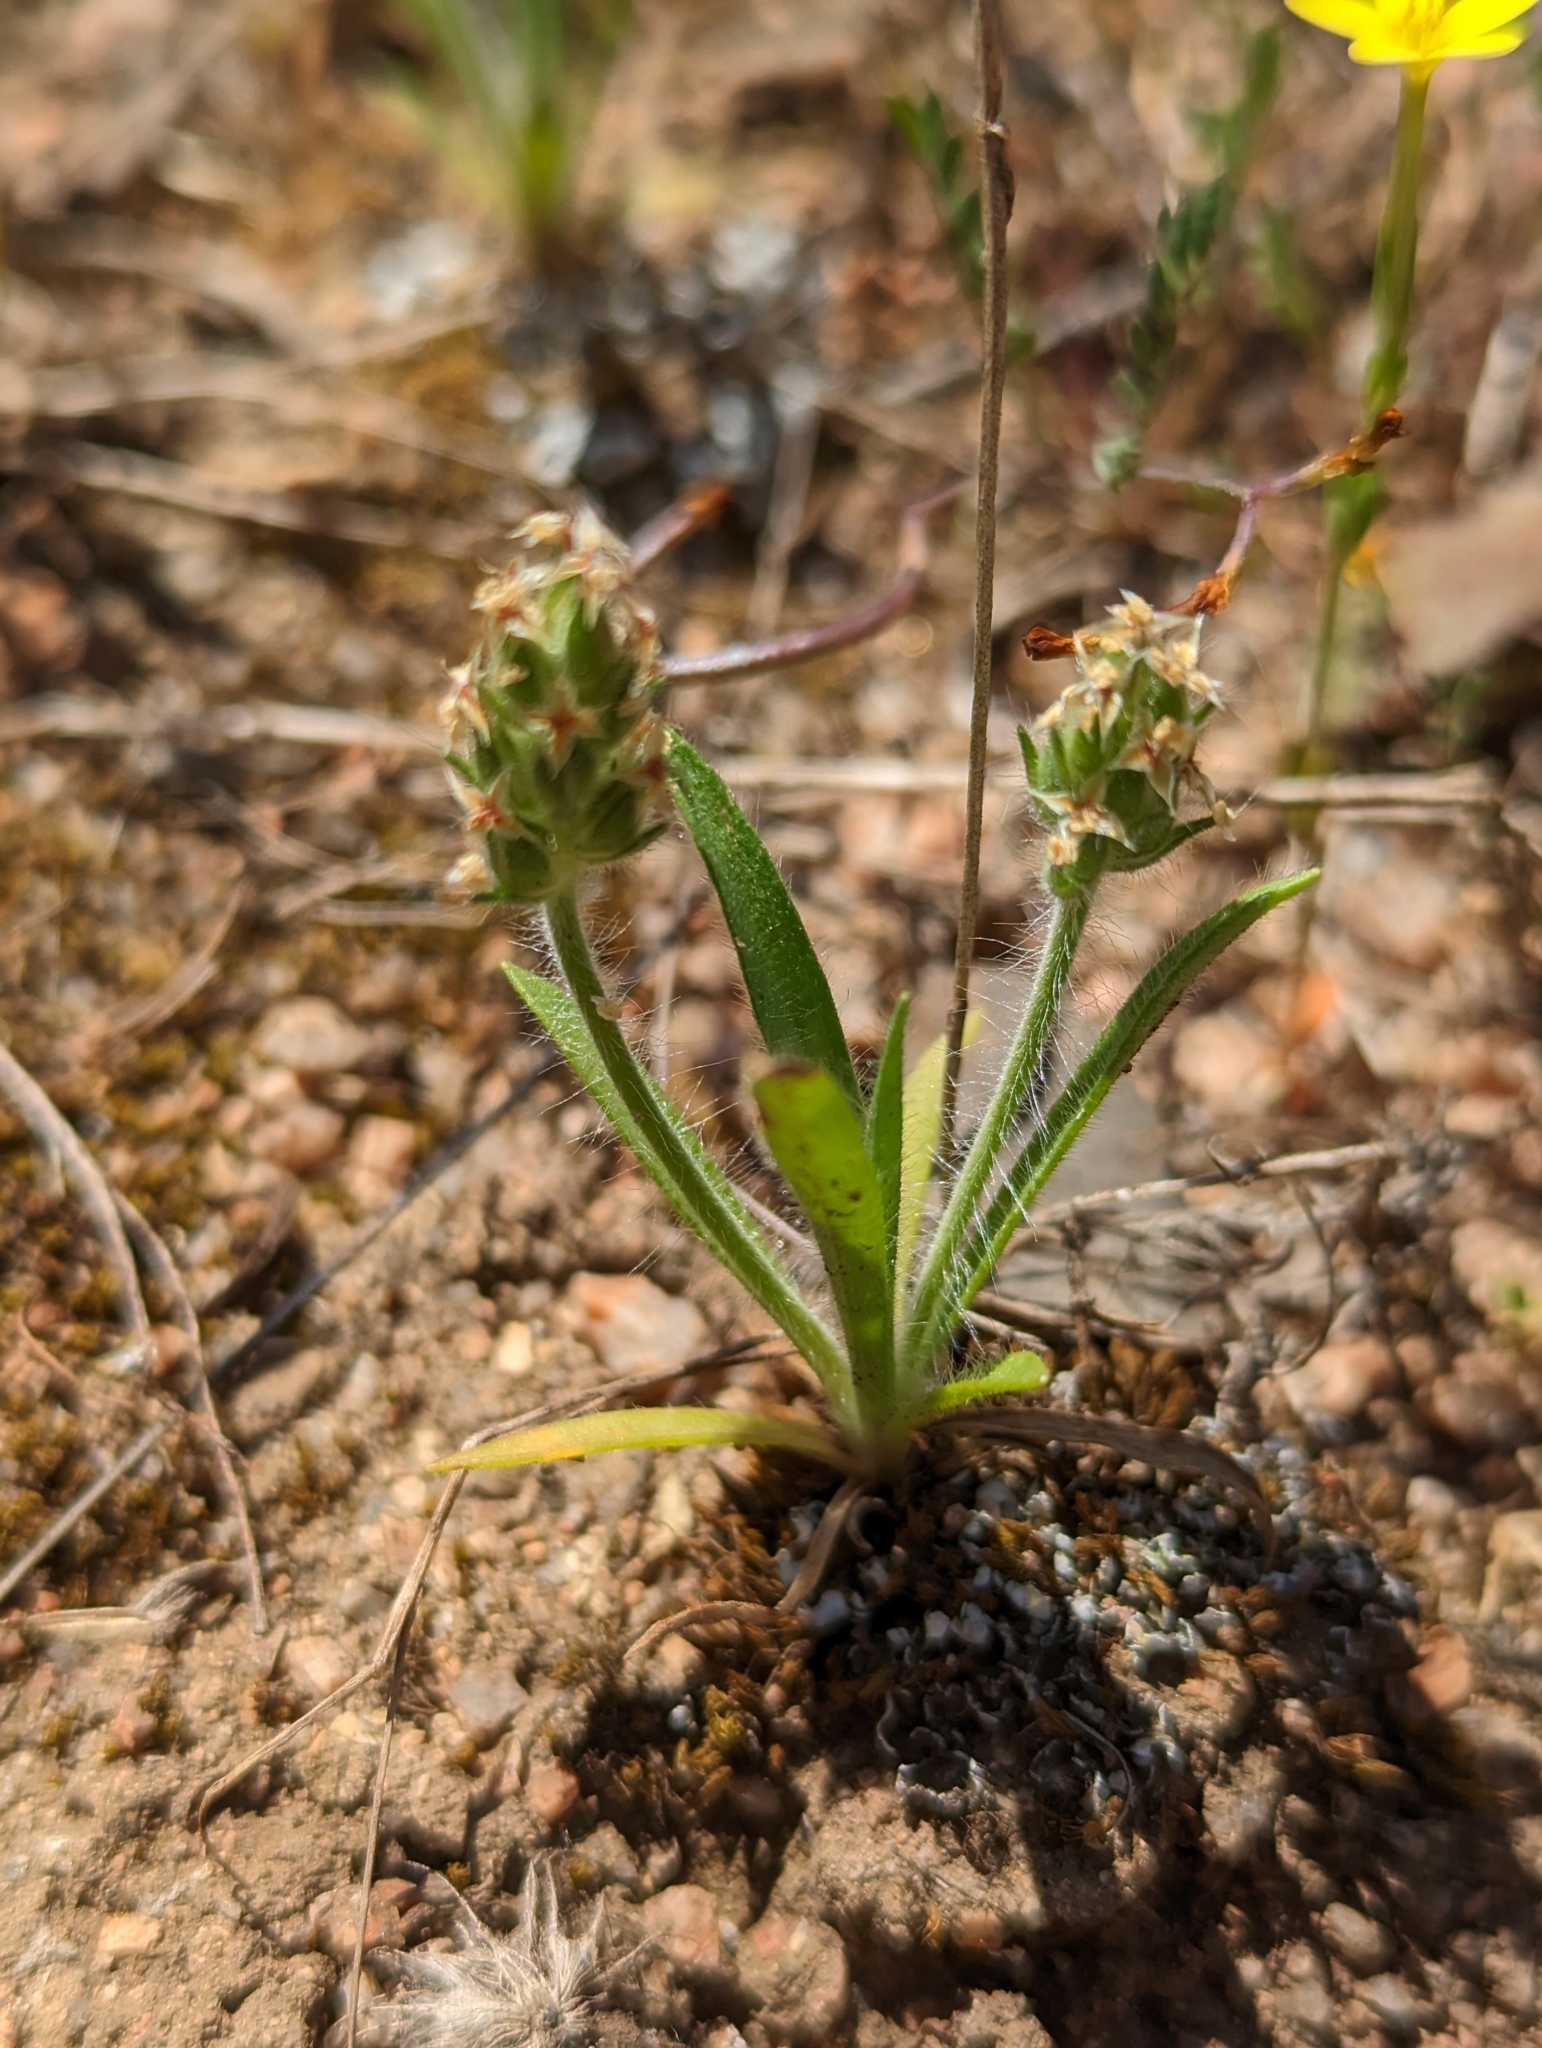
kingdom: Plantae
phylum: Tracheophyta
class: Magnoliopsida
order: Lamiales
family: Plantaginaceae
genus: Plantago
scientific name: Plantago bellardii
